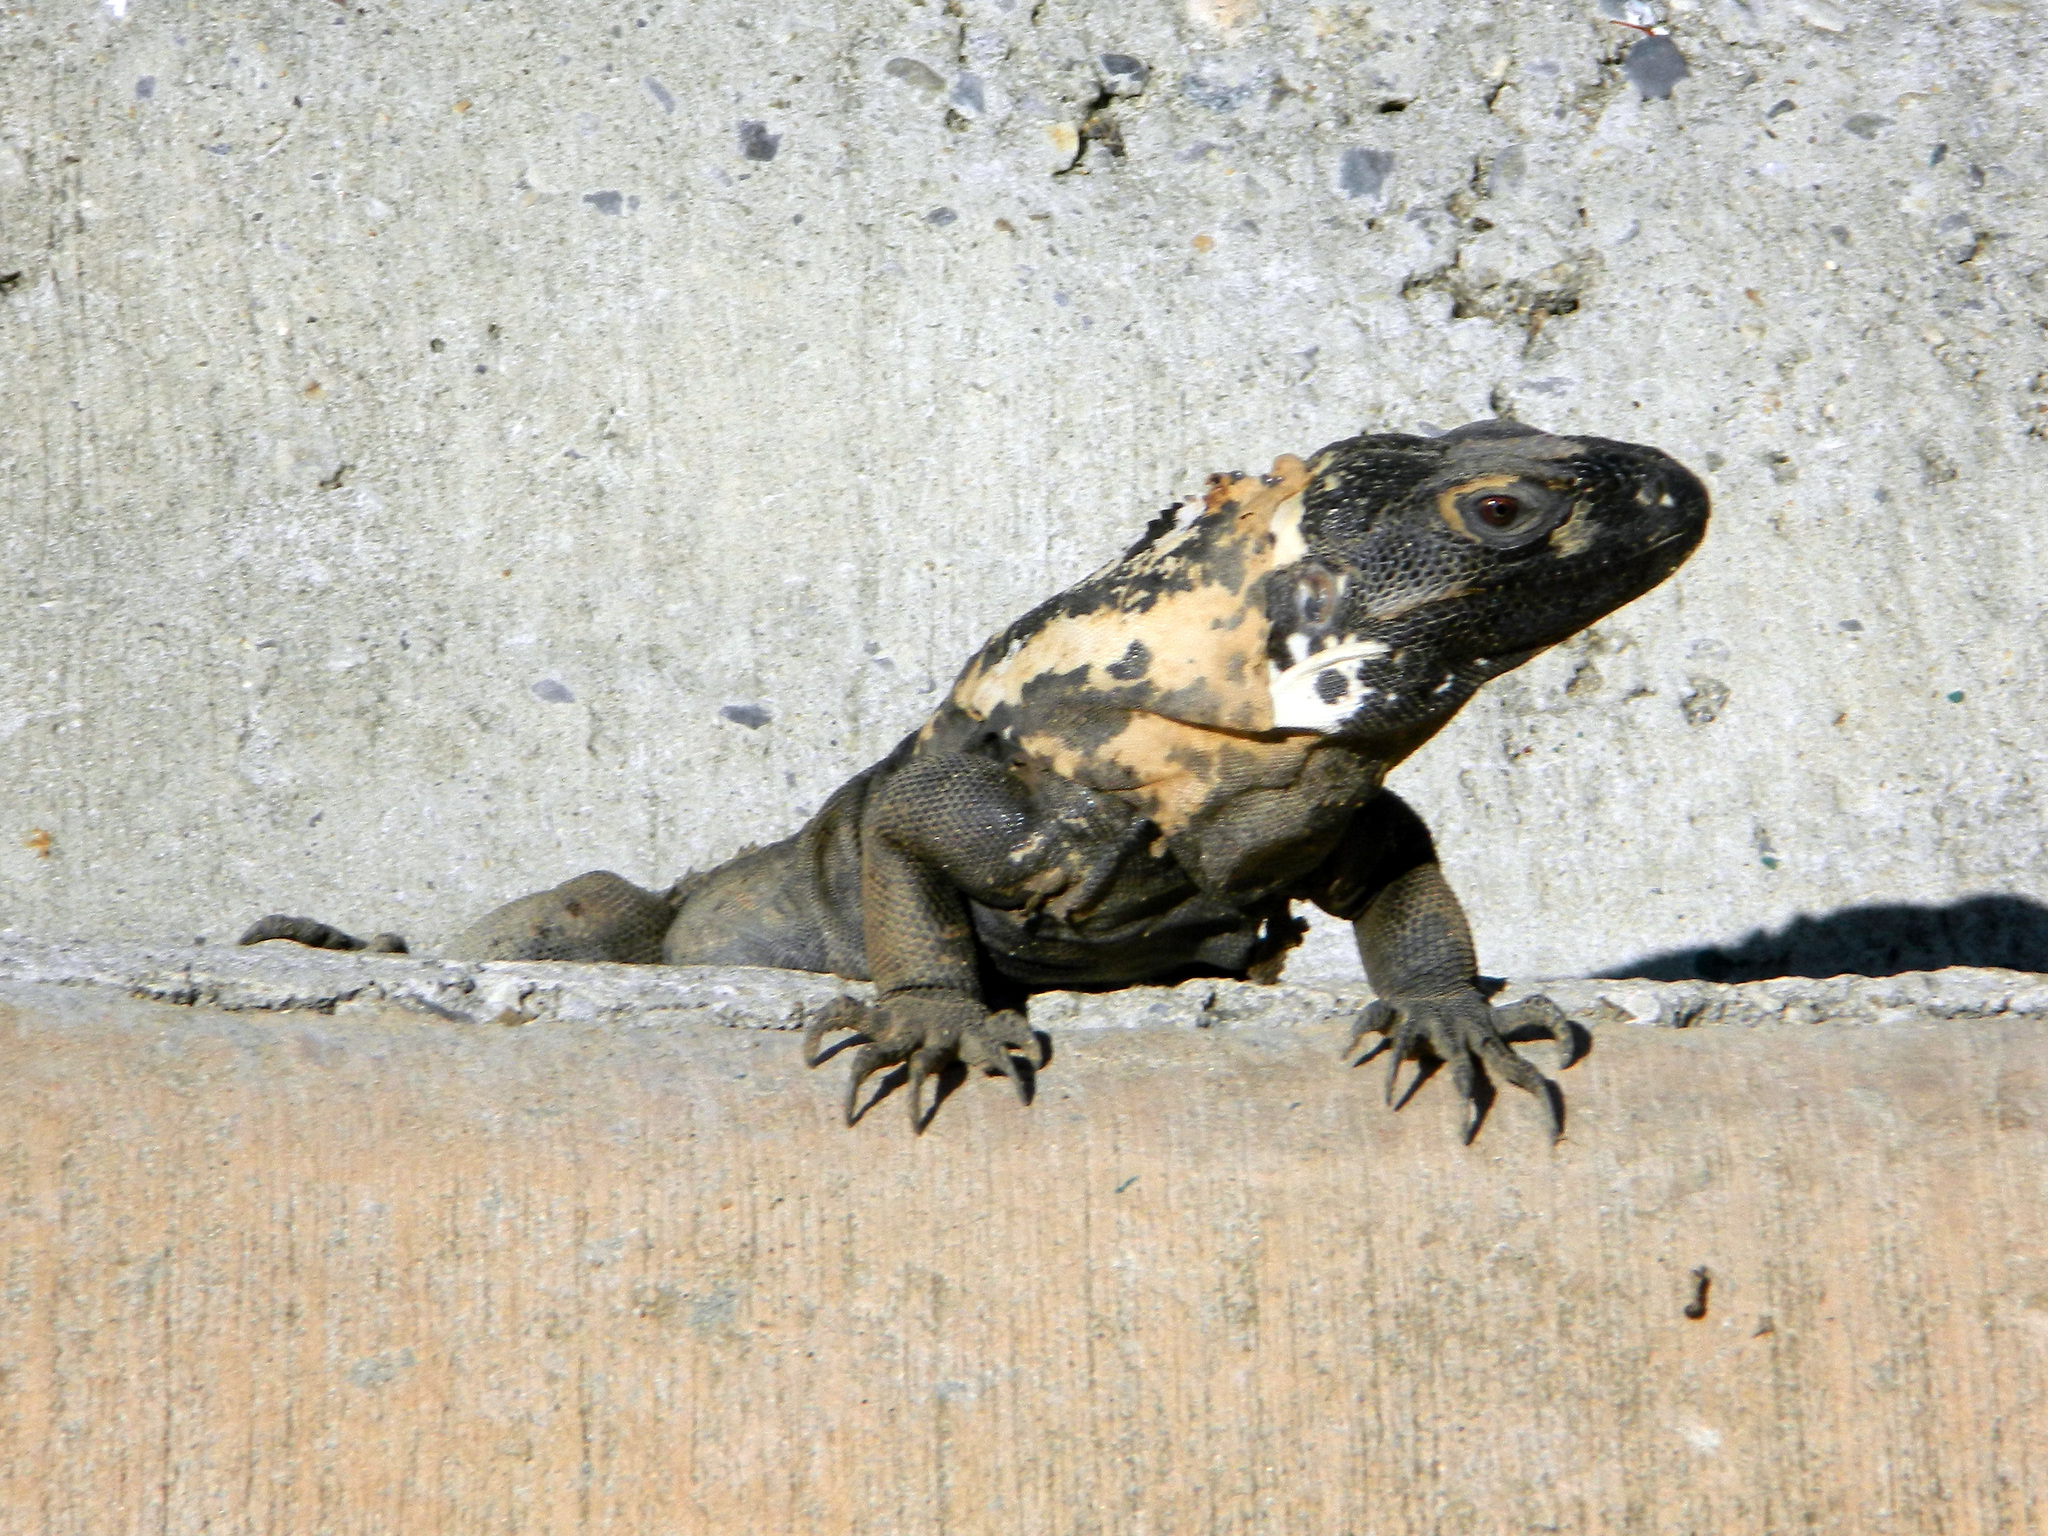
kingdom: Animalia
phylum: Chordata
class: Squamata
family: Iguanidae
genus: Ctenosaura
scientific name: Ctenosaura pectinata
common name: Guerreran spiny-tailed iguana
